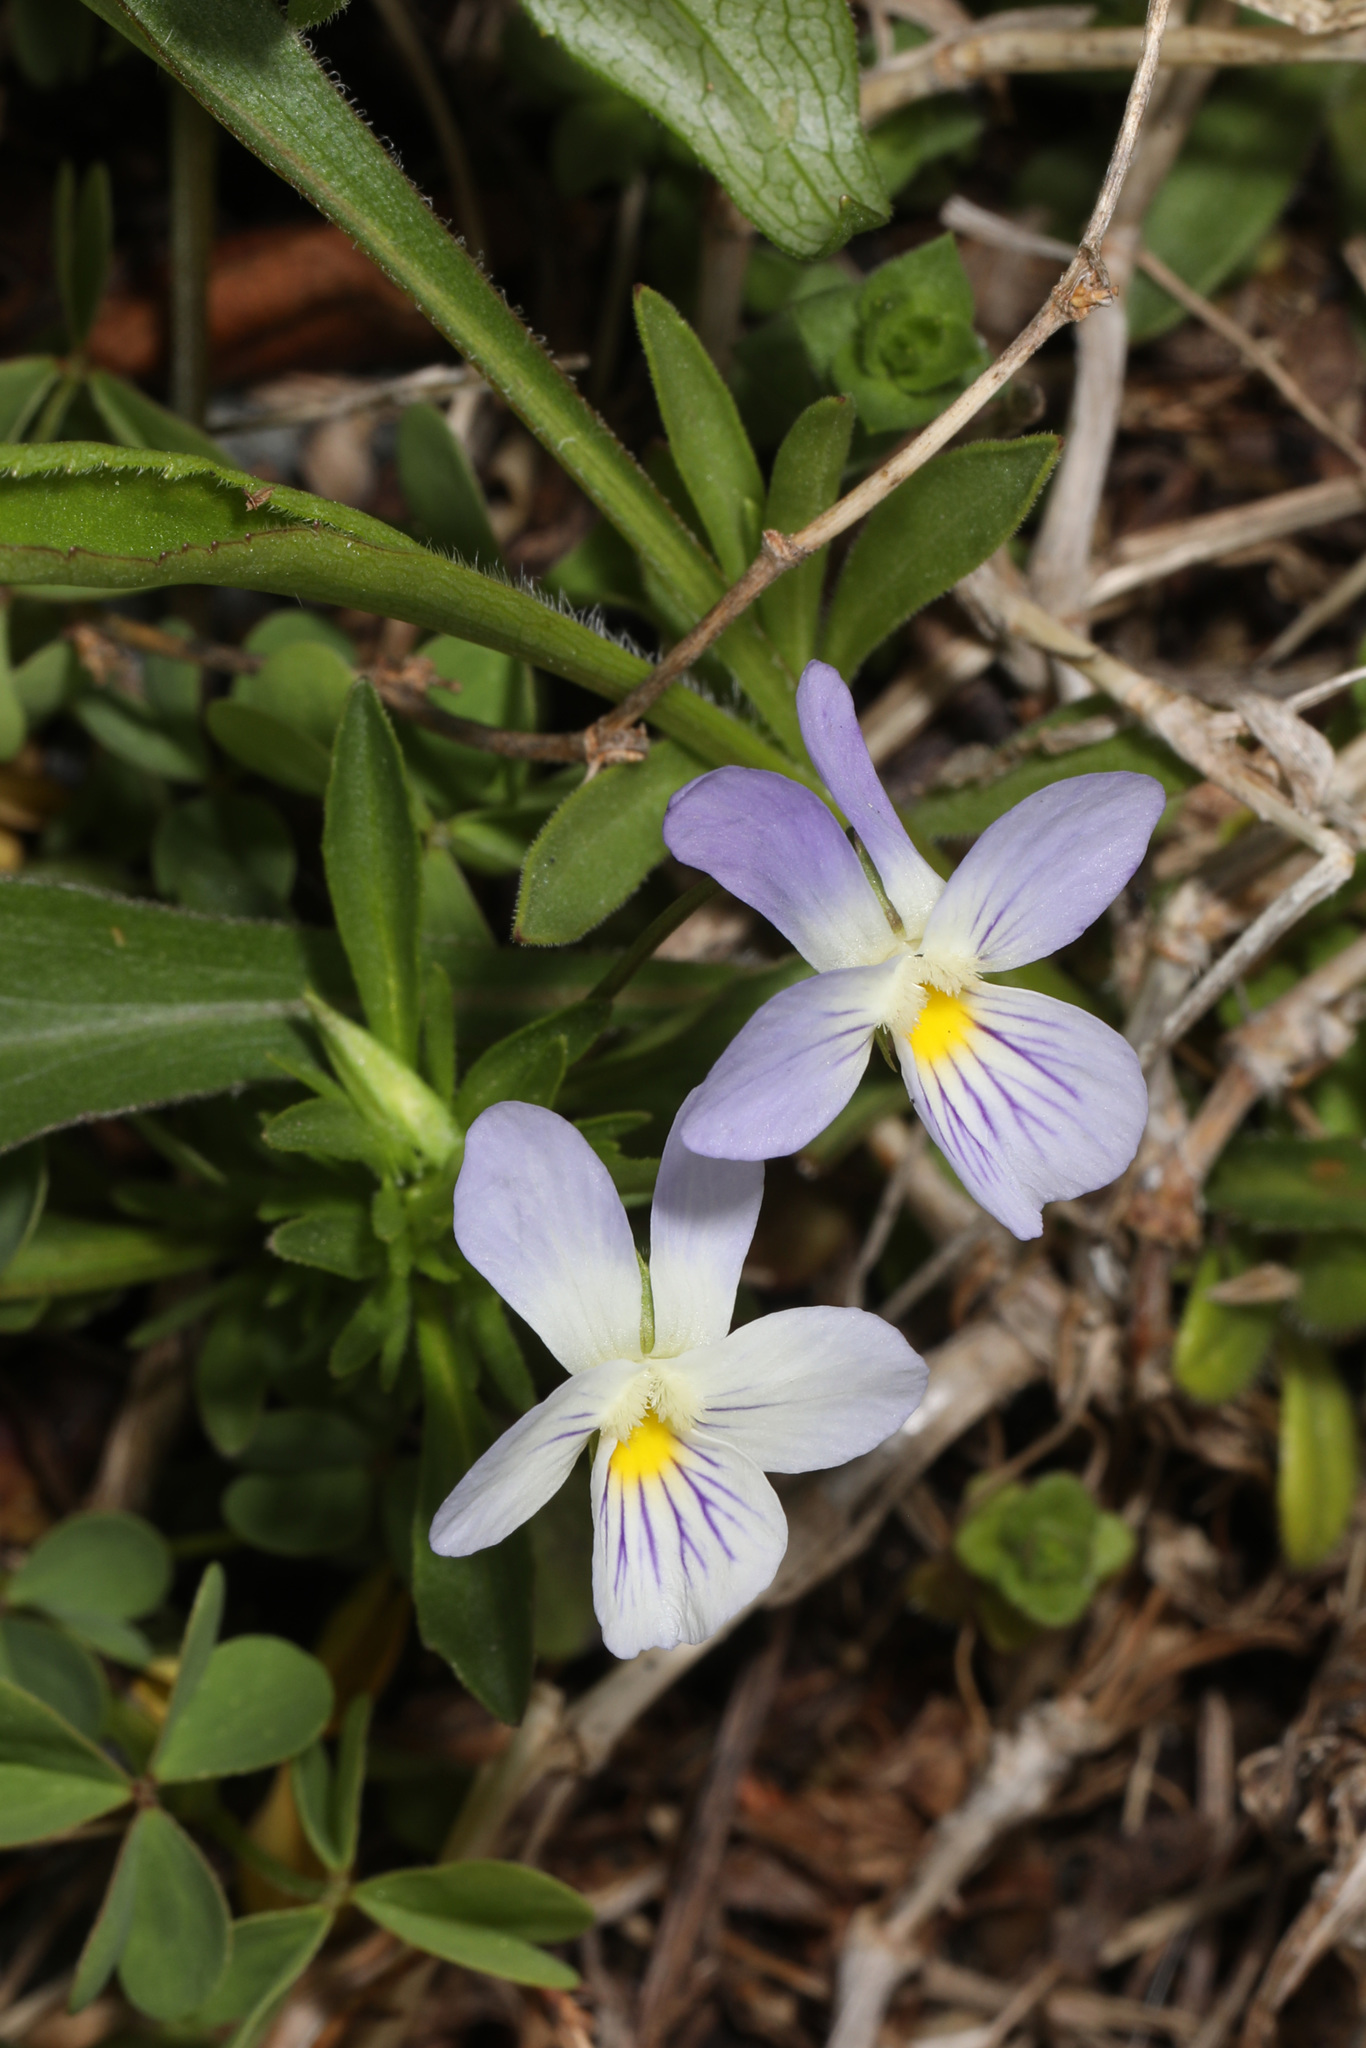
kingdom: Plantae
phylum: Tracheophyta
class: Magnoliopsida
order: Malpighiales
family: Violaceae
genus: Viola
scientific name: Viola rafinesquei
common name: American field pansy
